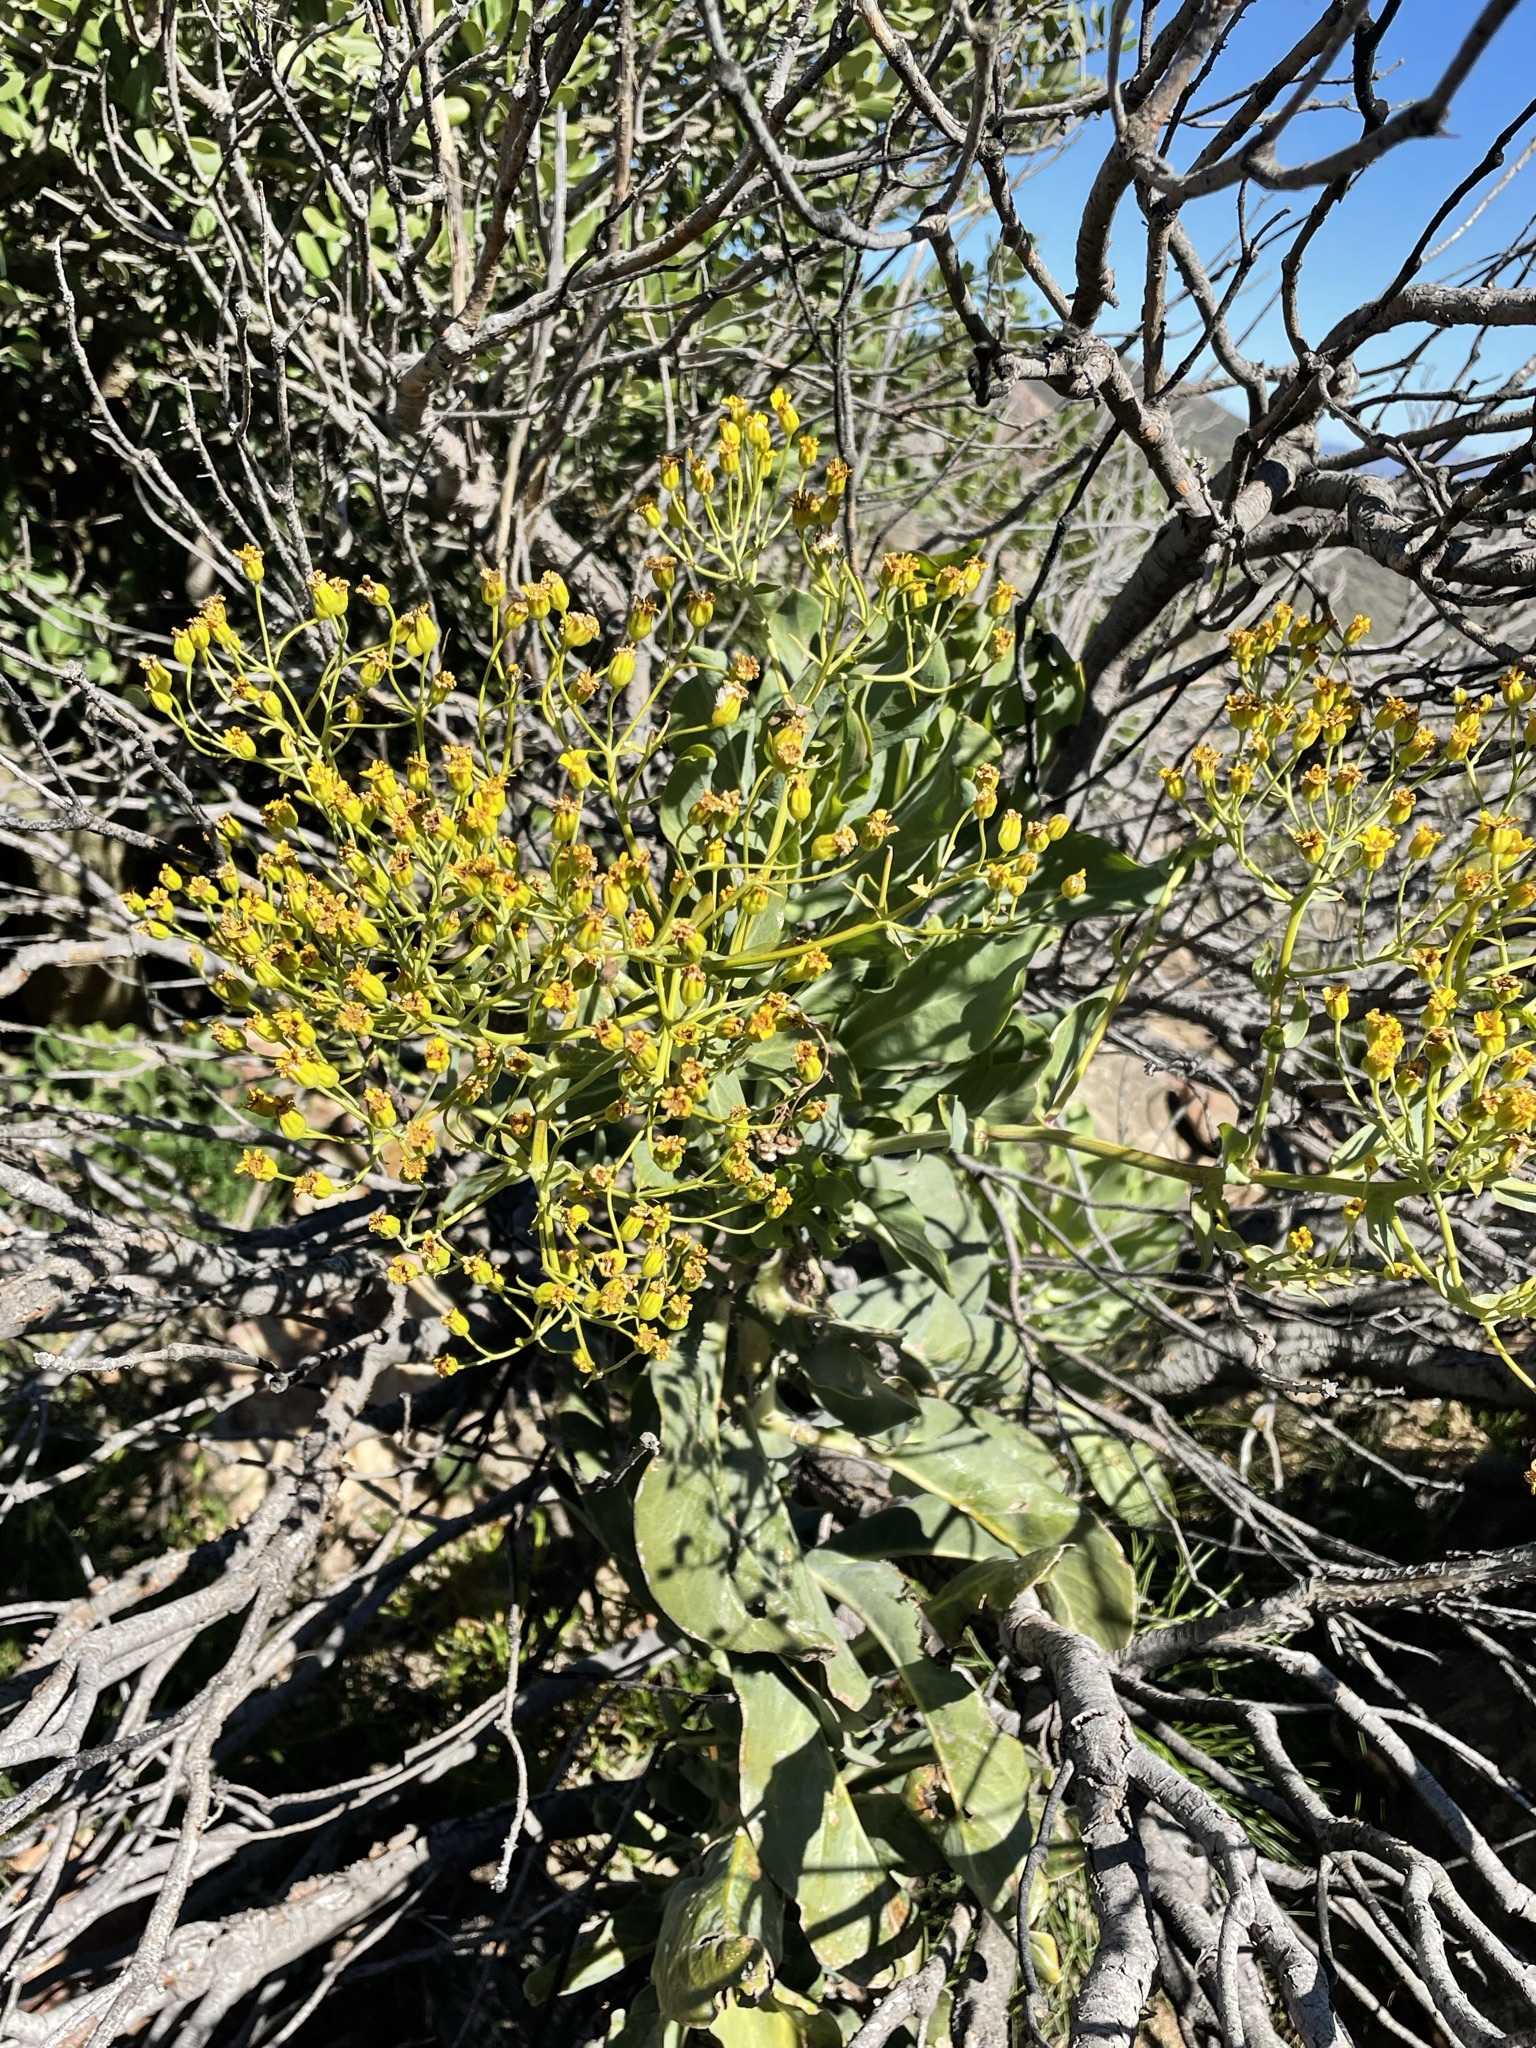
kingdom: Plantae
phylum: Tracheophyta
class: Magnoliopsida
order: Asterales
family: Asteraceae
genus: Othonna
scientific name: Othonna parviflora
